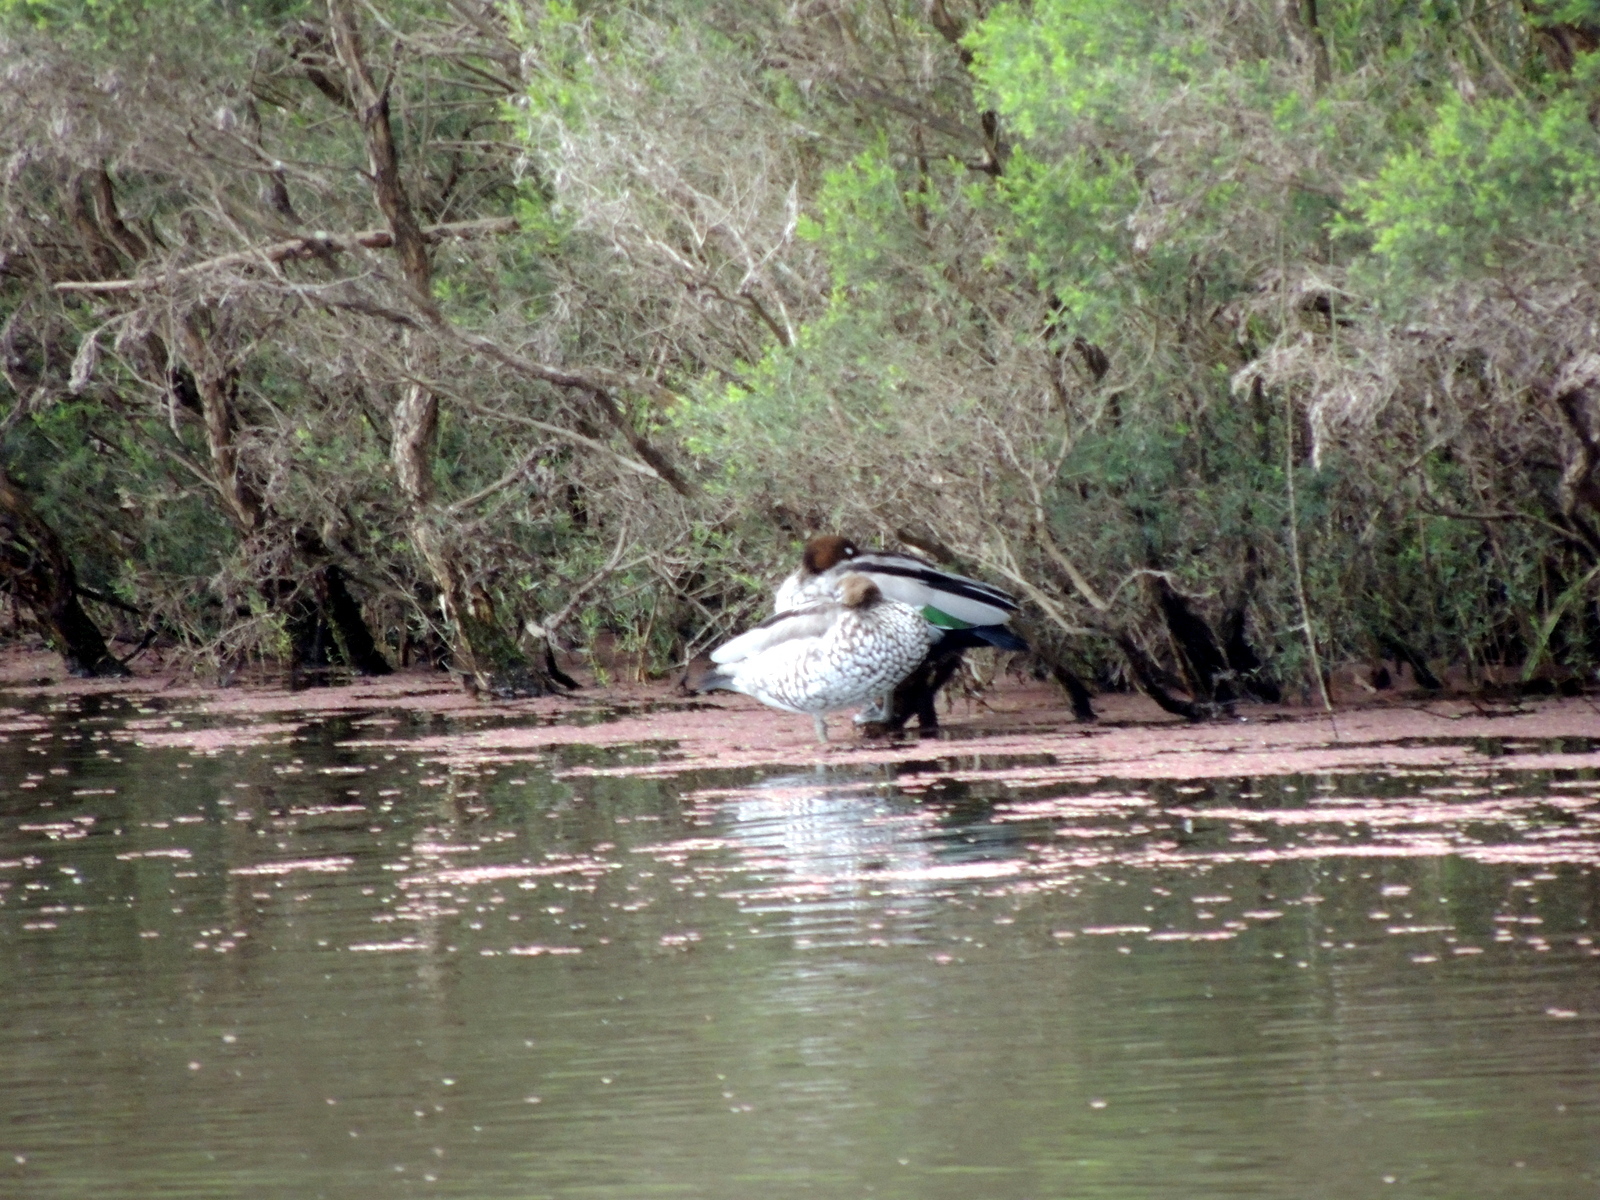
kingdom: Animalia
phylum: Chordata
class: Aves
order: Anseriformes
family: Anatidae
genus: Chenonetta
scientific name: Chenonetta jubata
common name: Maned duck
